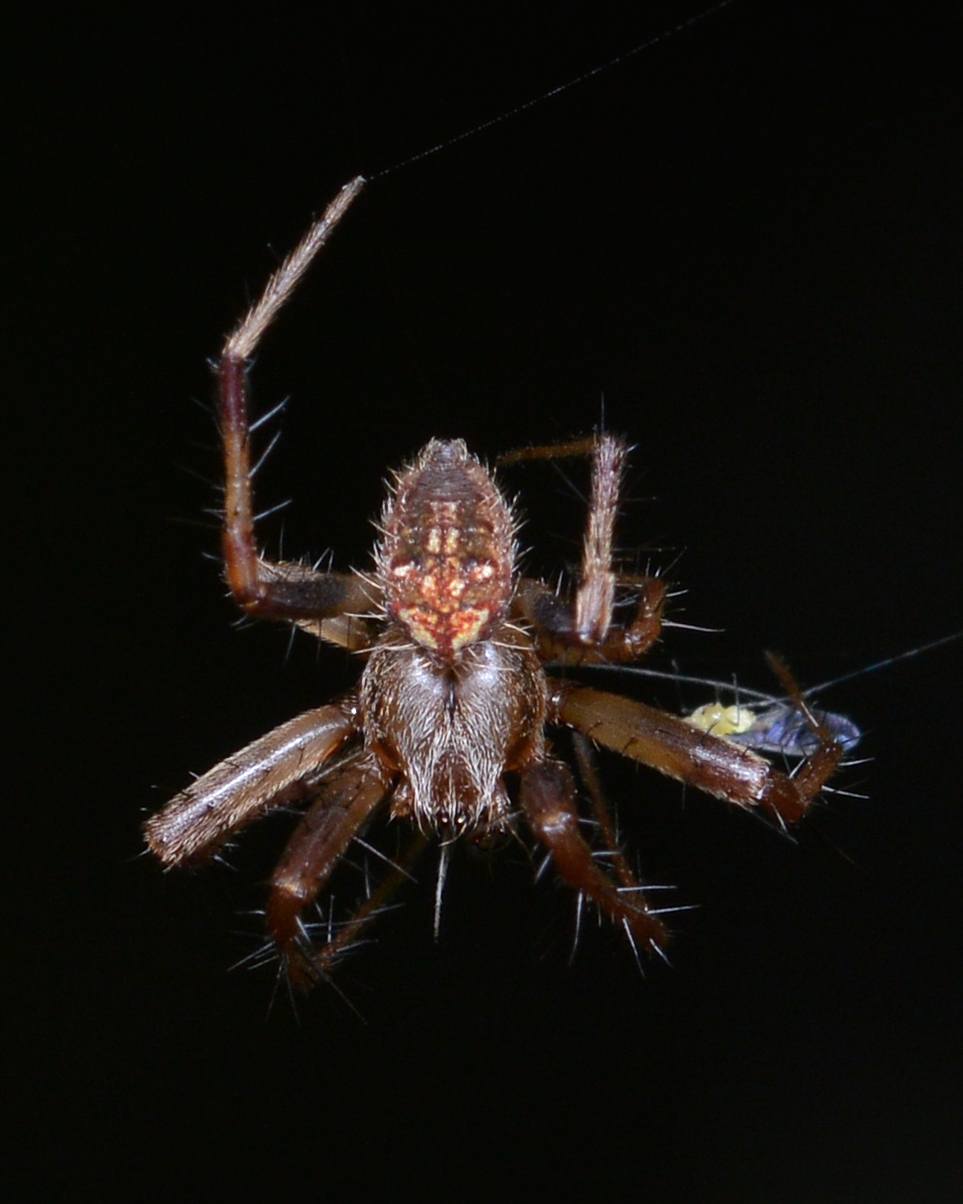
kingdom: Animalia
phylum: Arthropoda
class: Arachnida
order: Araneae
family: Araneidae
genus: Neoscona
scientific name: Neoscona arabesca
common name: Orb weavers
